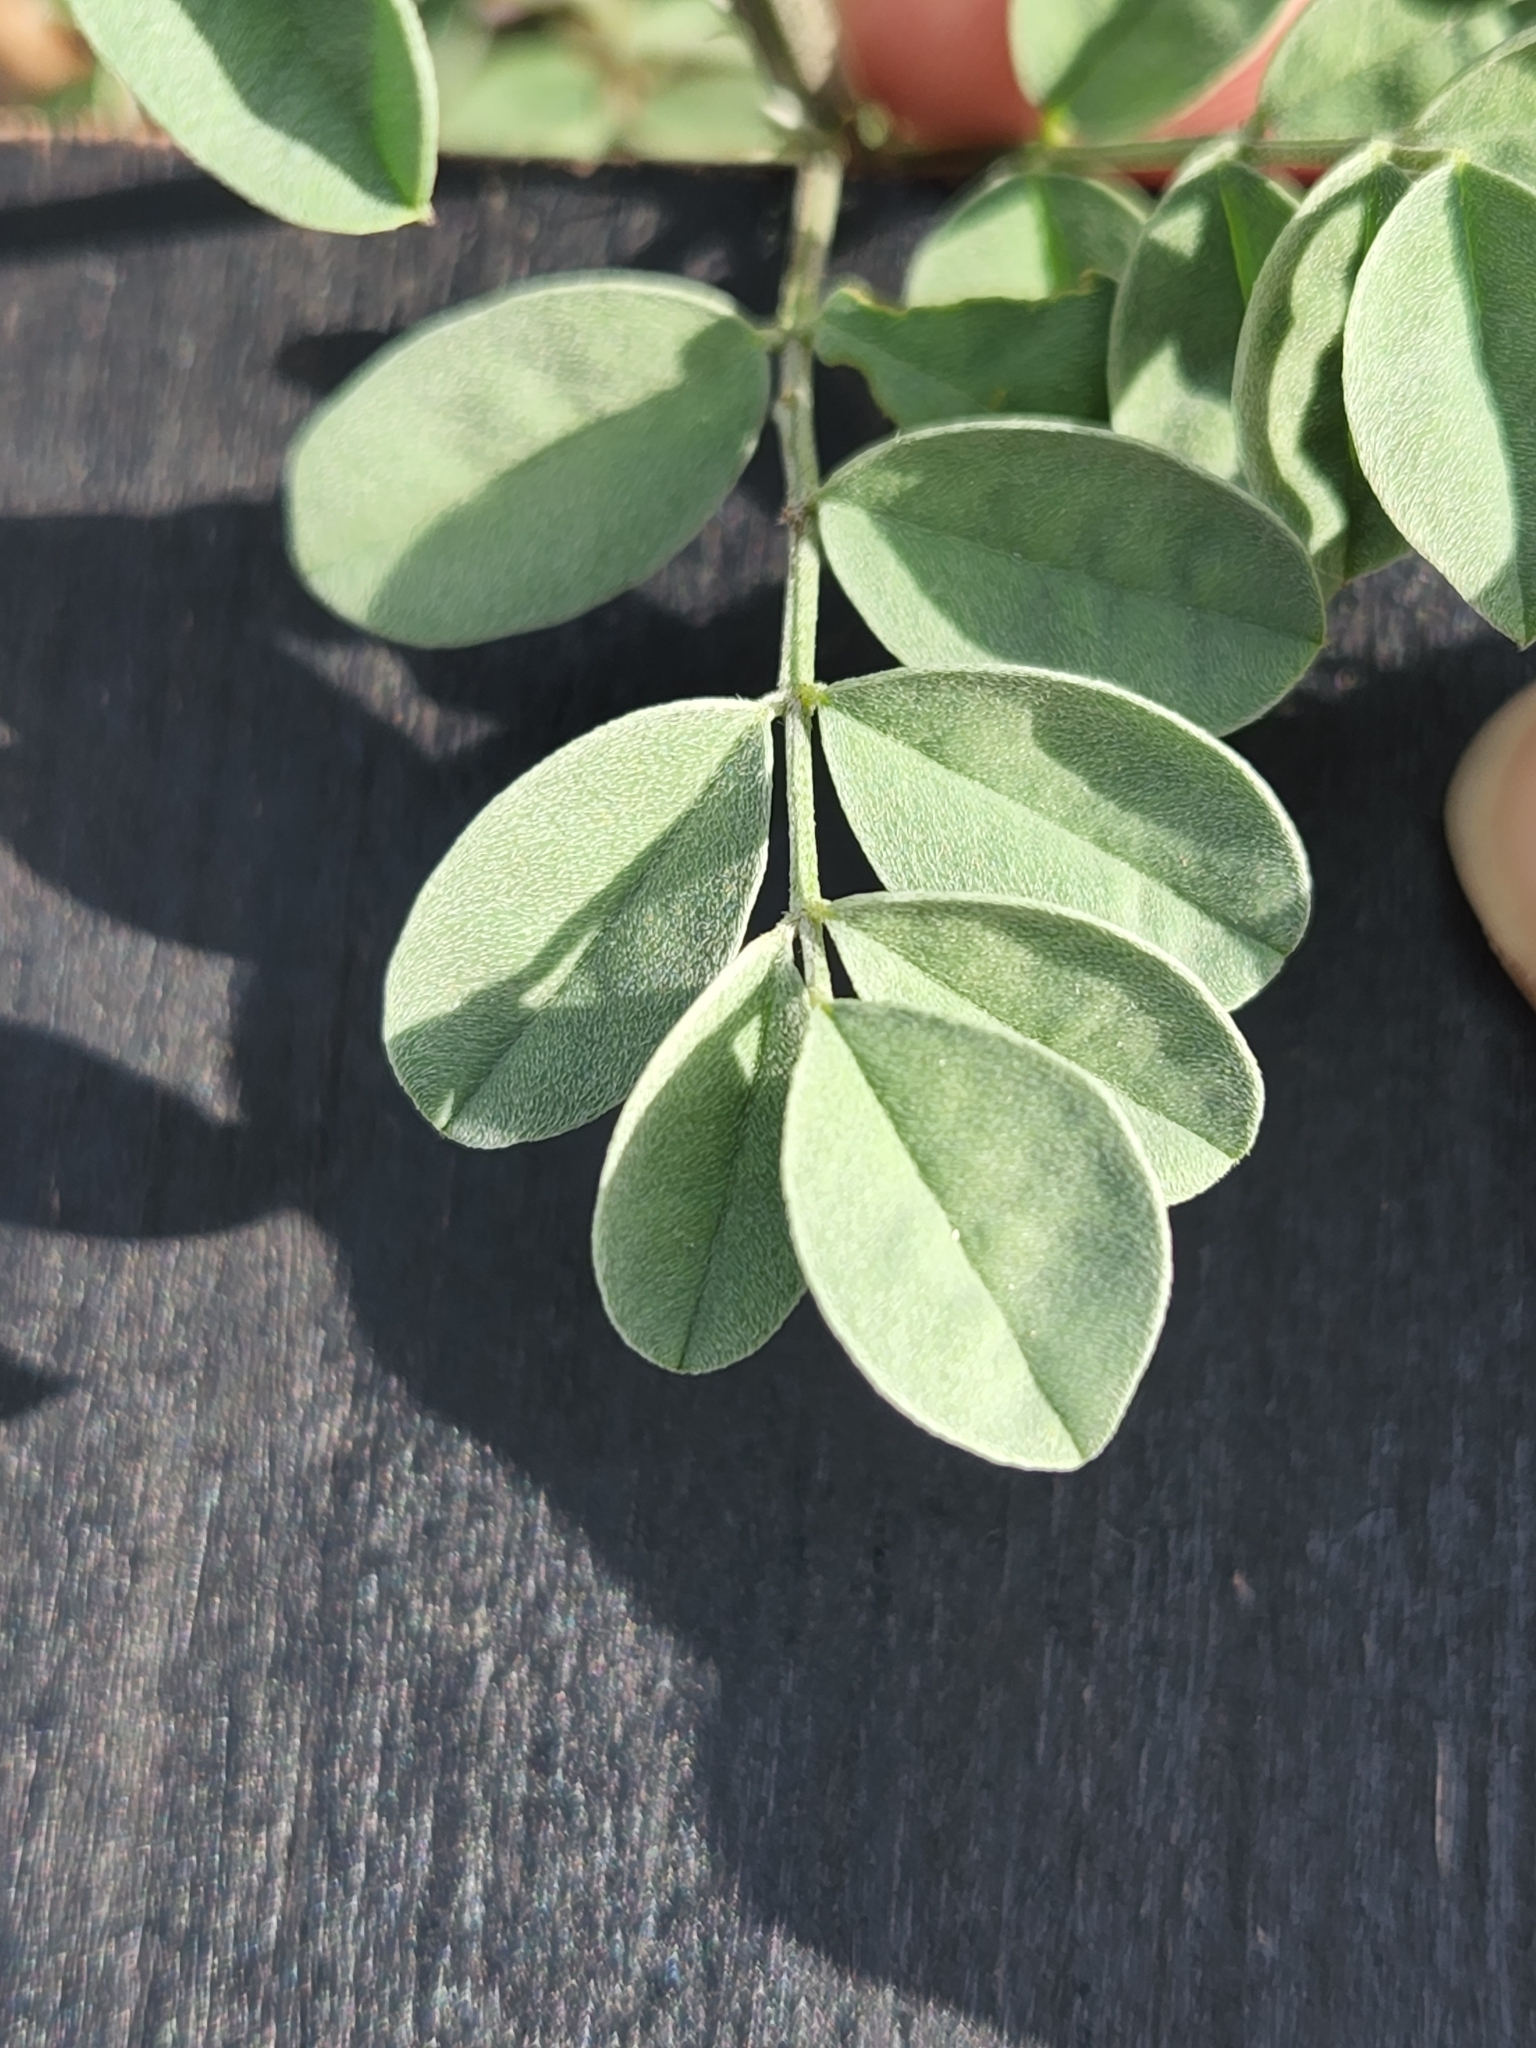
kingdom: Plantae
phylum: Tracheophyta
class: Magnoliopsida
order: Fabales
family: Fabaceae
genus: Indigofera
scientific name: Indigofera lindheimeriana
